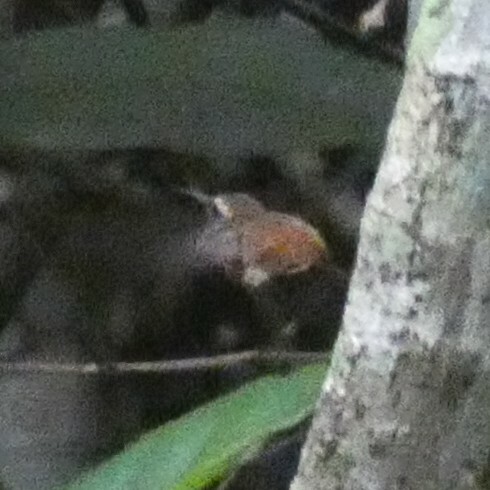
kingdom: Animalia
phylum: Chordata
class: Aves
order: Apodiformes
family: Trochilidae
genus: Phaethornis
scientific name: Phaethornis ruber
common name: Reddish hermit
